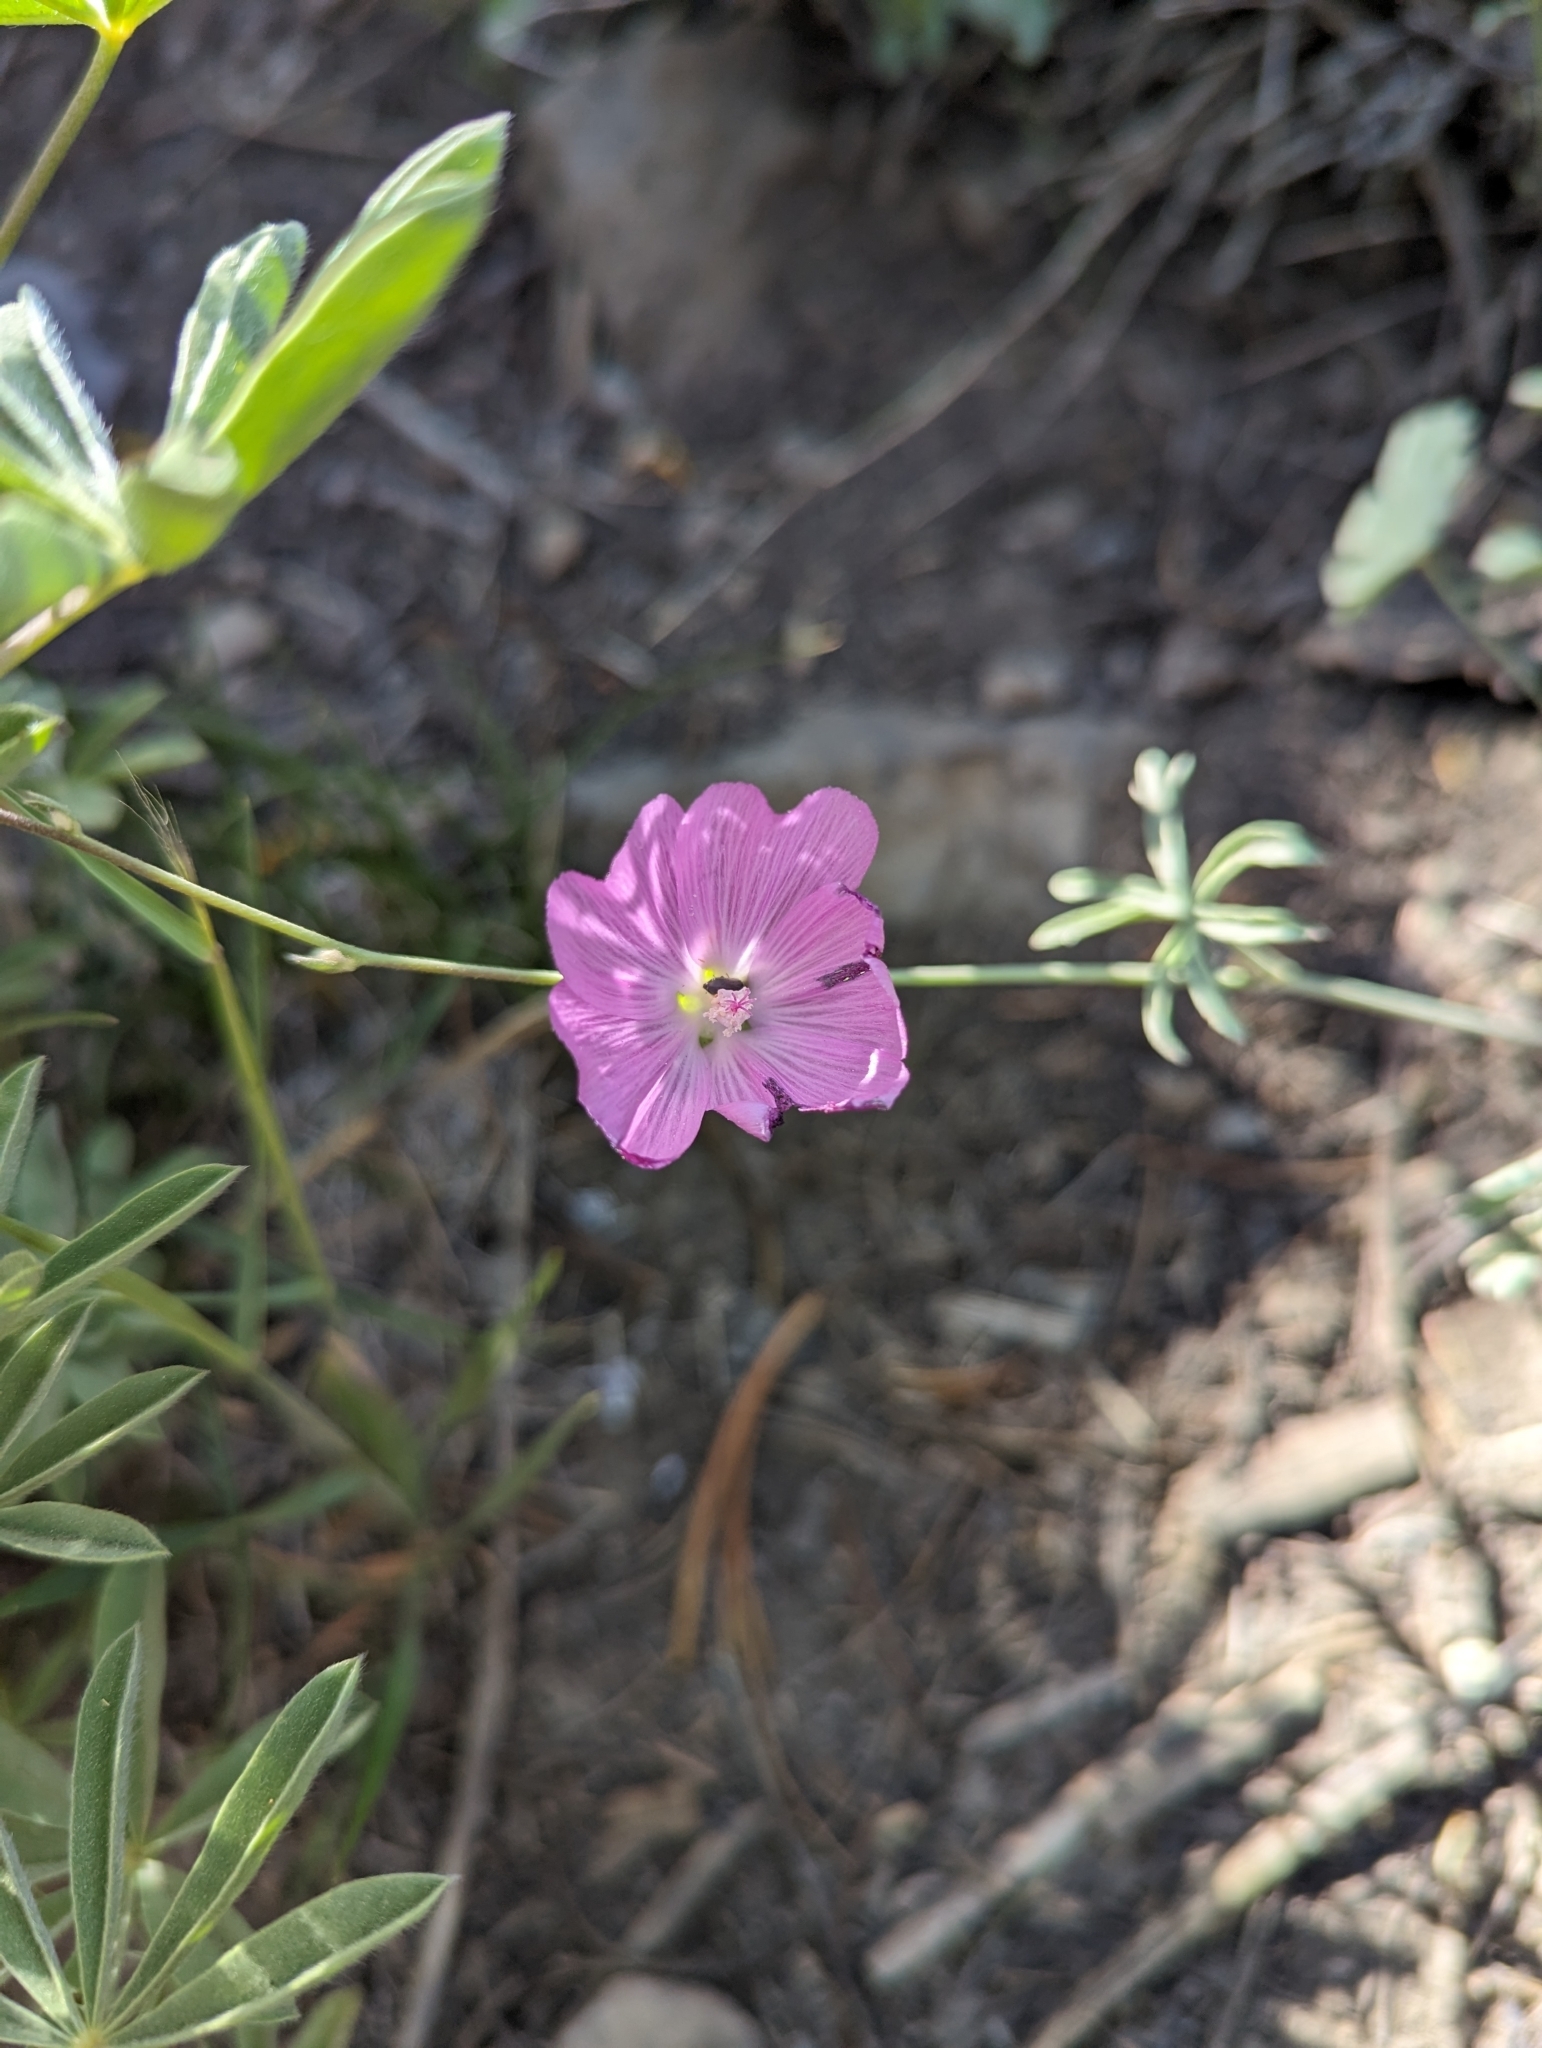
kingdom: Plantae
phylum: Tracheophyta
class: Magnoliopsida
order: Malvales
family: Malvaceae
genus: Sidalcea
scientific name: Sidalcea glaucescens
